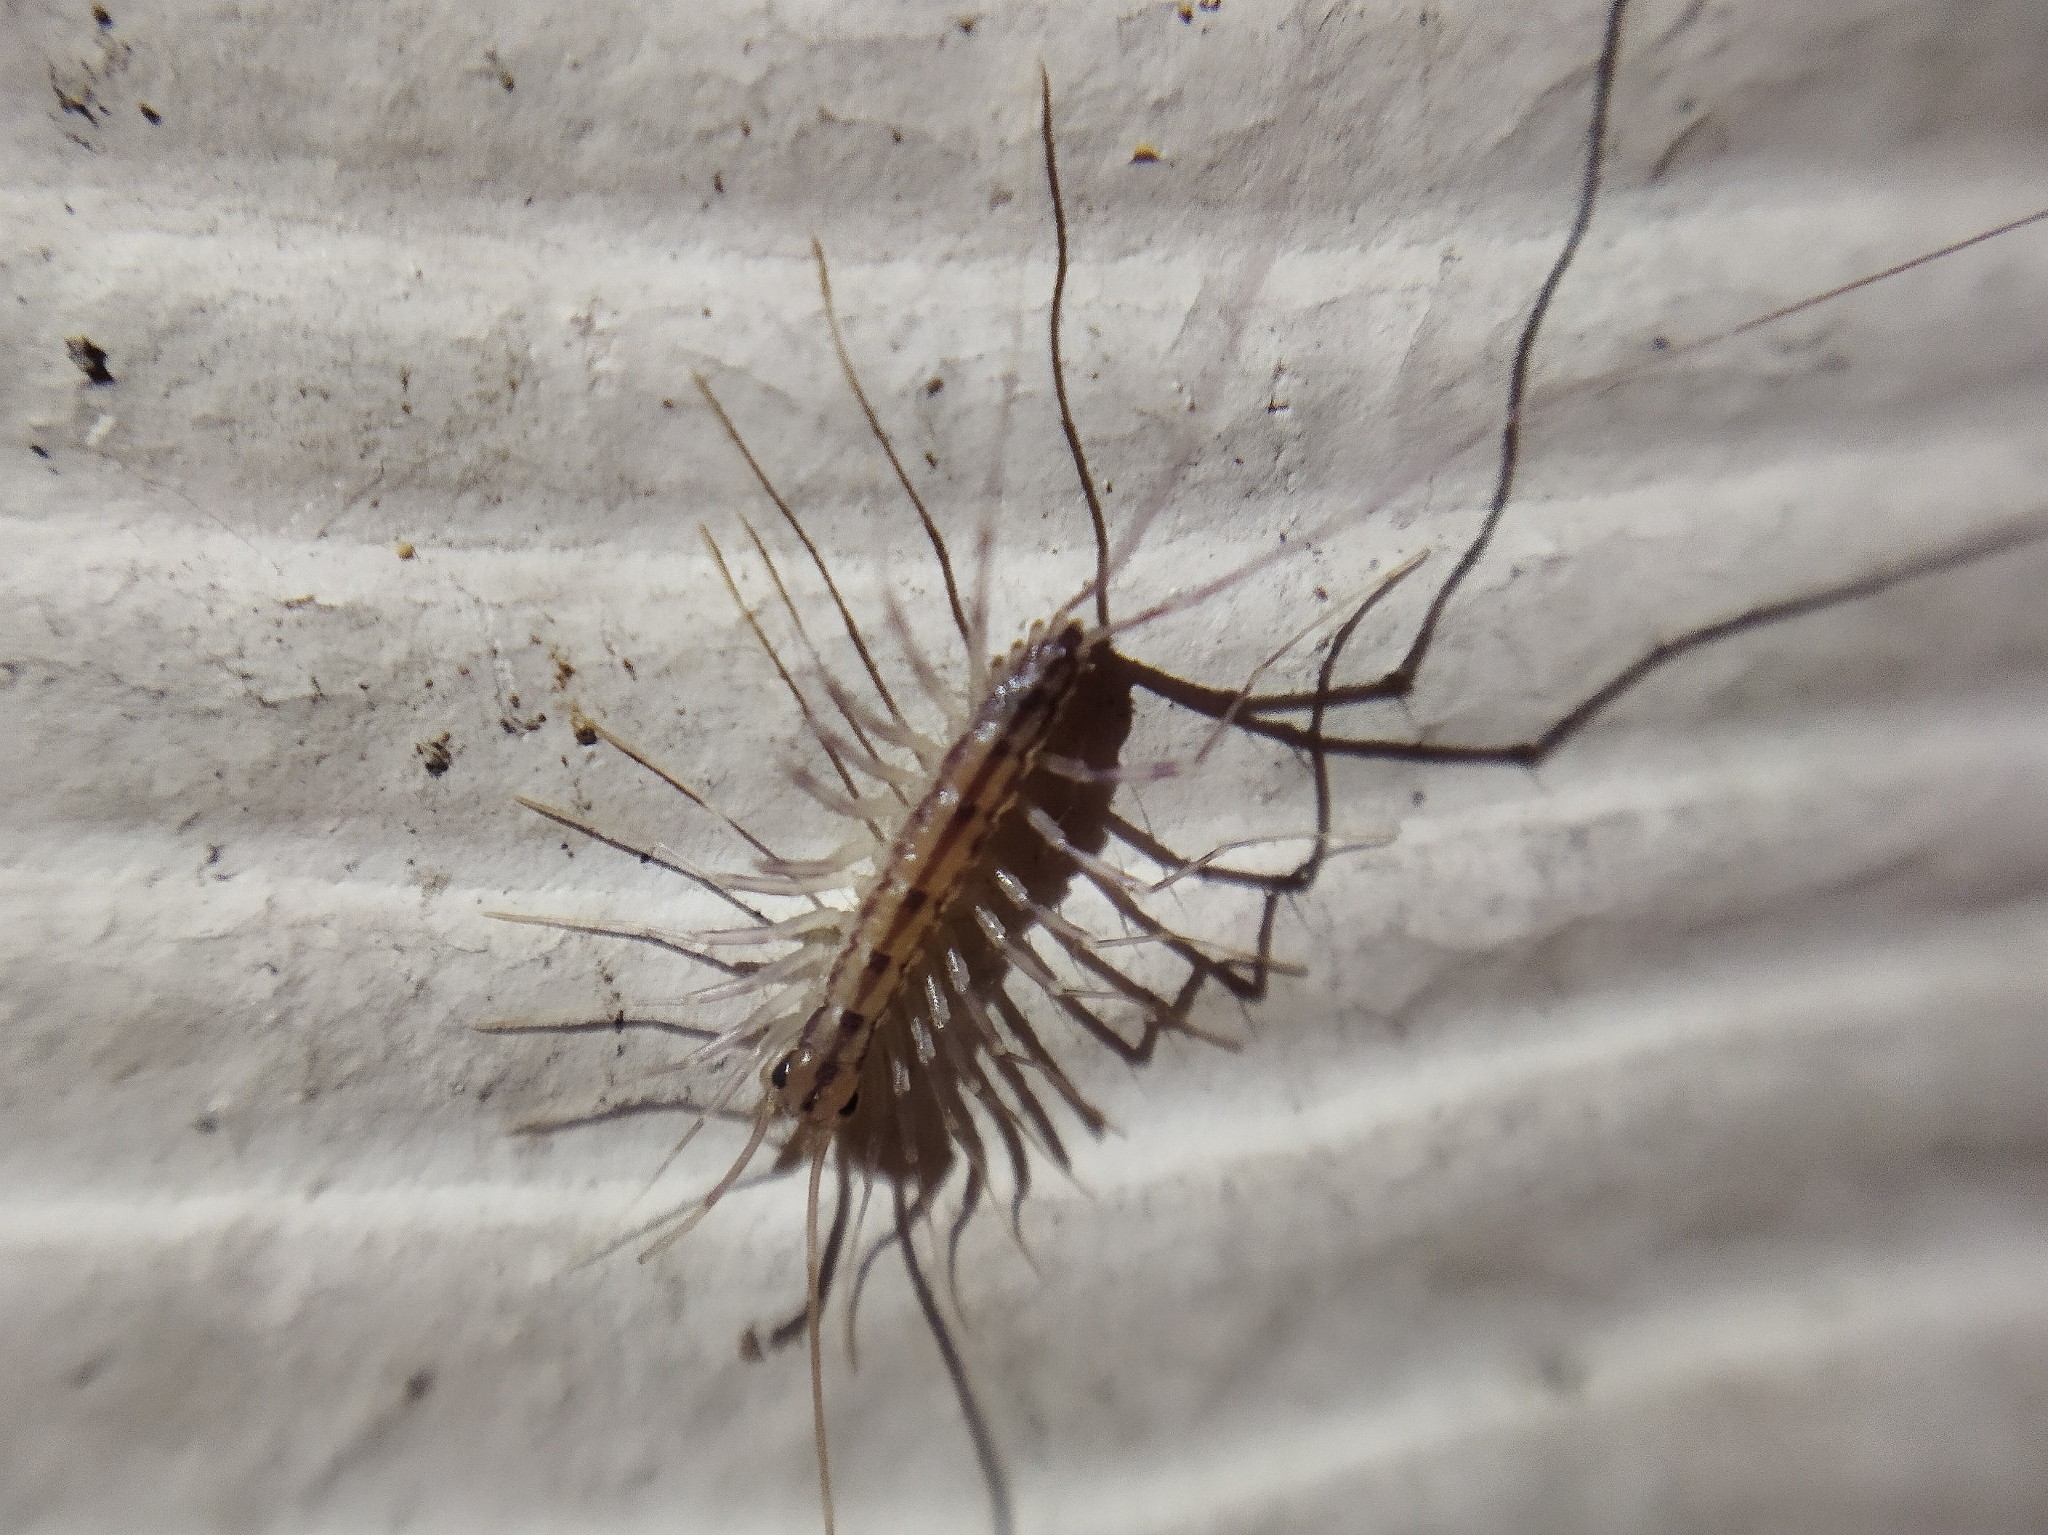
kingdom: Animalia
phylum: Arthropoda
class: Chilopoda
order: Scutigeromorpha
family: Scutigeridae
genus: Scutigera
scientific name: Scutigera coleoptrata
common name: House centipede
